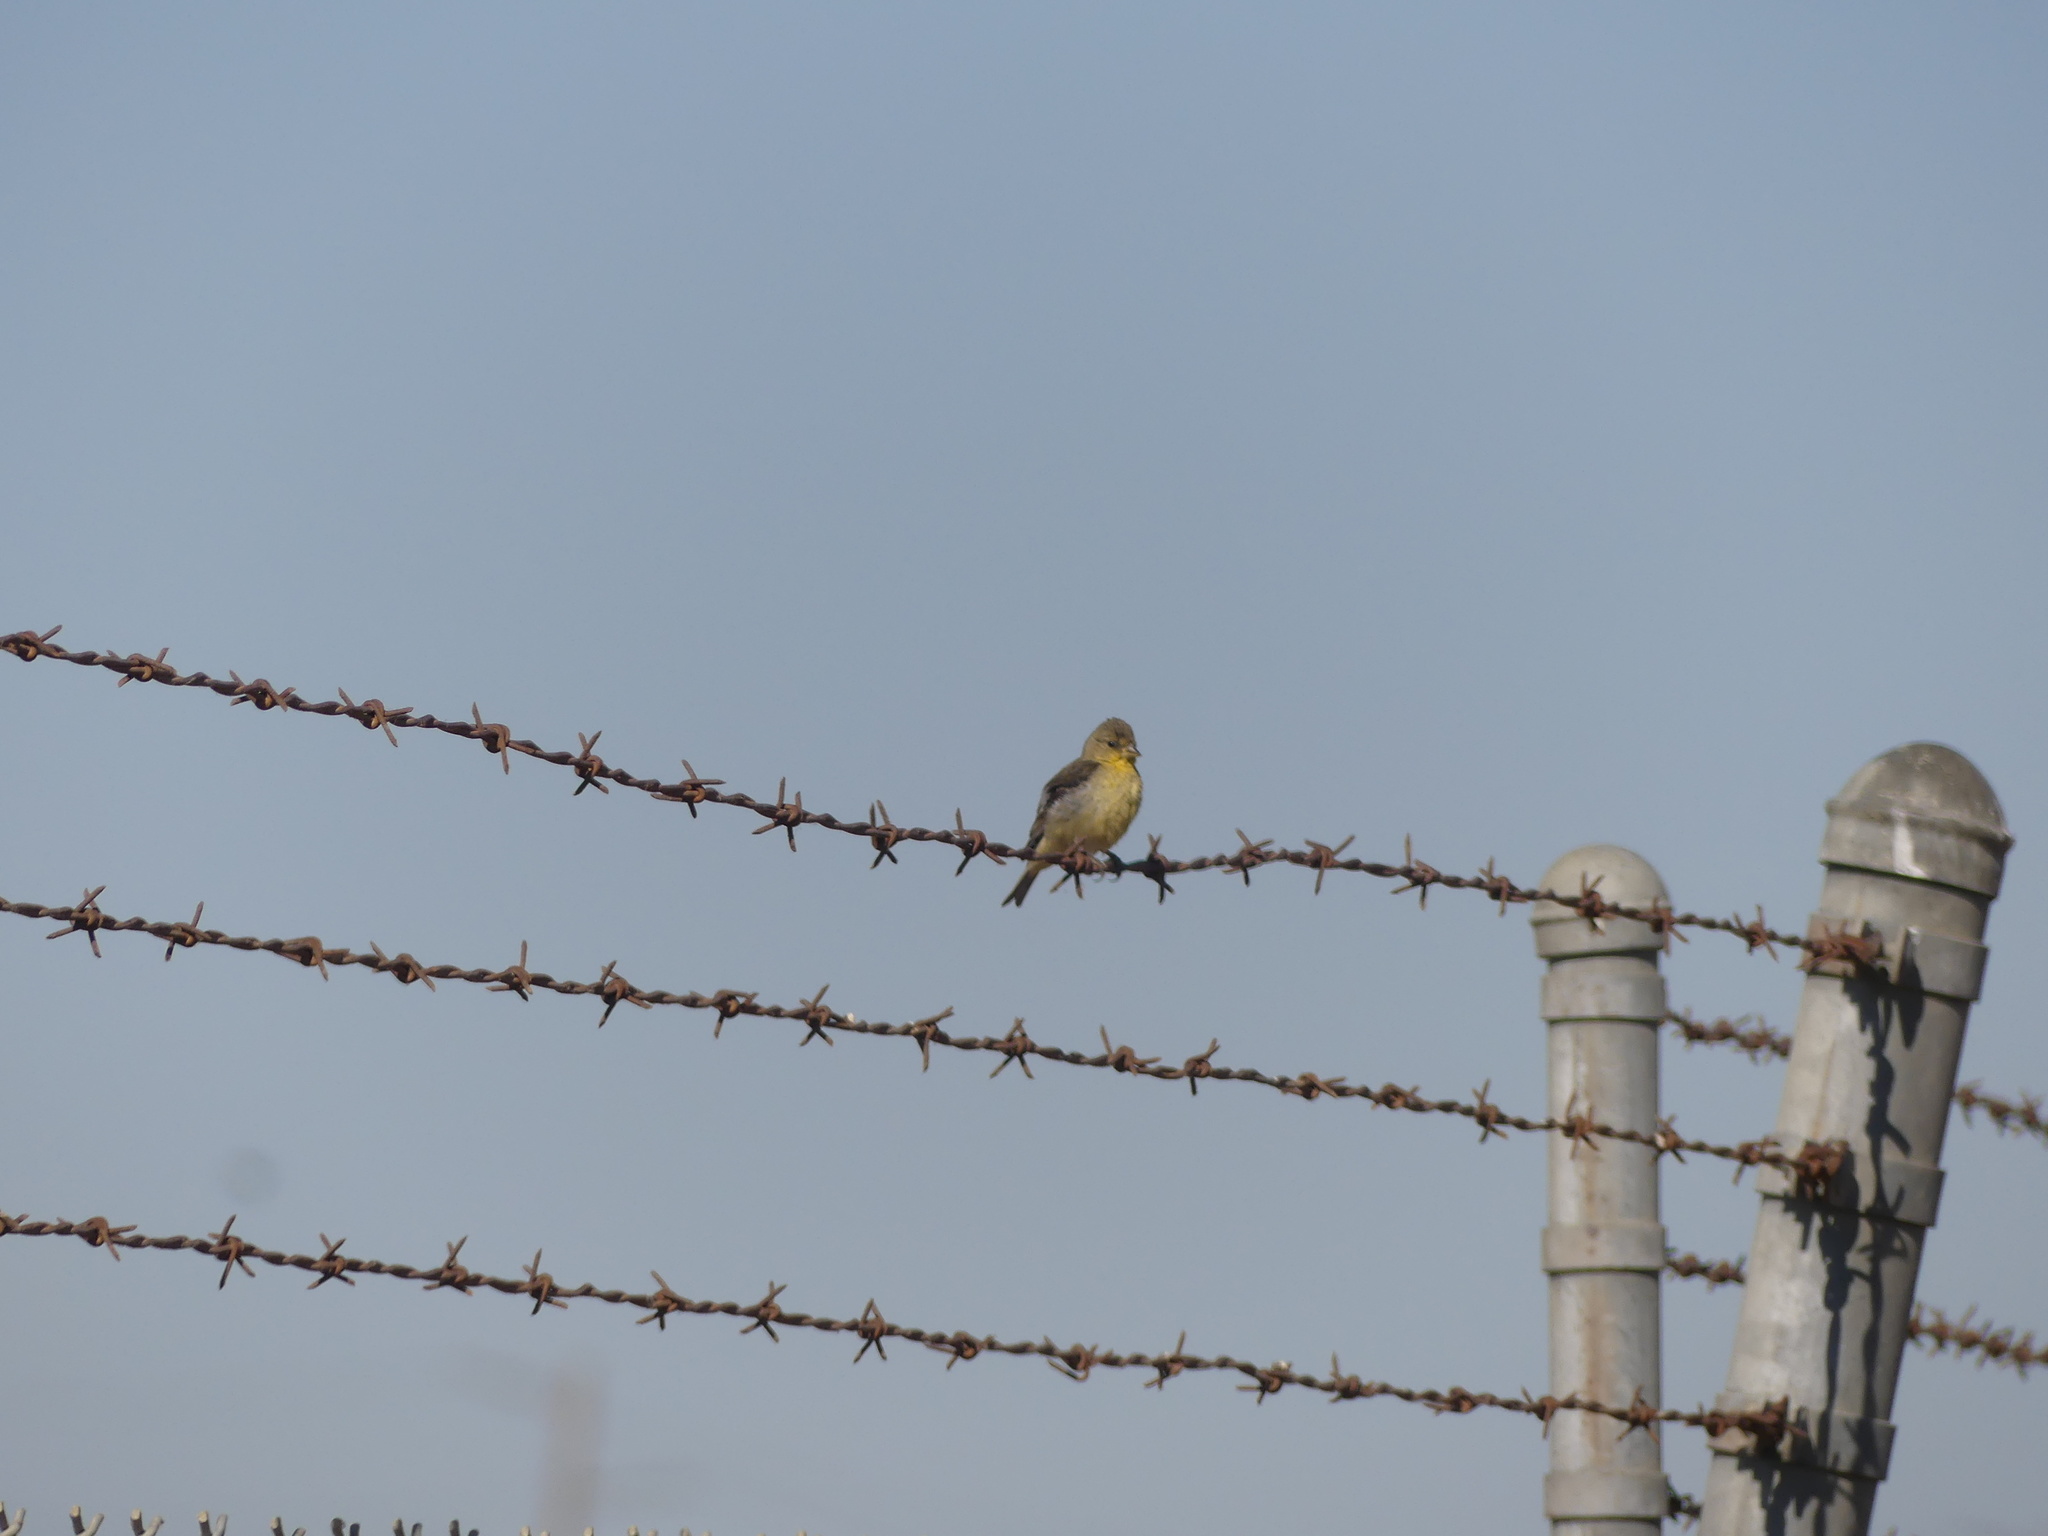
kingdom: Animalia
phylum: Chordata
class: Aves
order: Passeriformes
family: Fringillidae
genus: Spinus
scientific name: Spinus psaltria
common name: Lesser goldfinch
